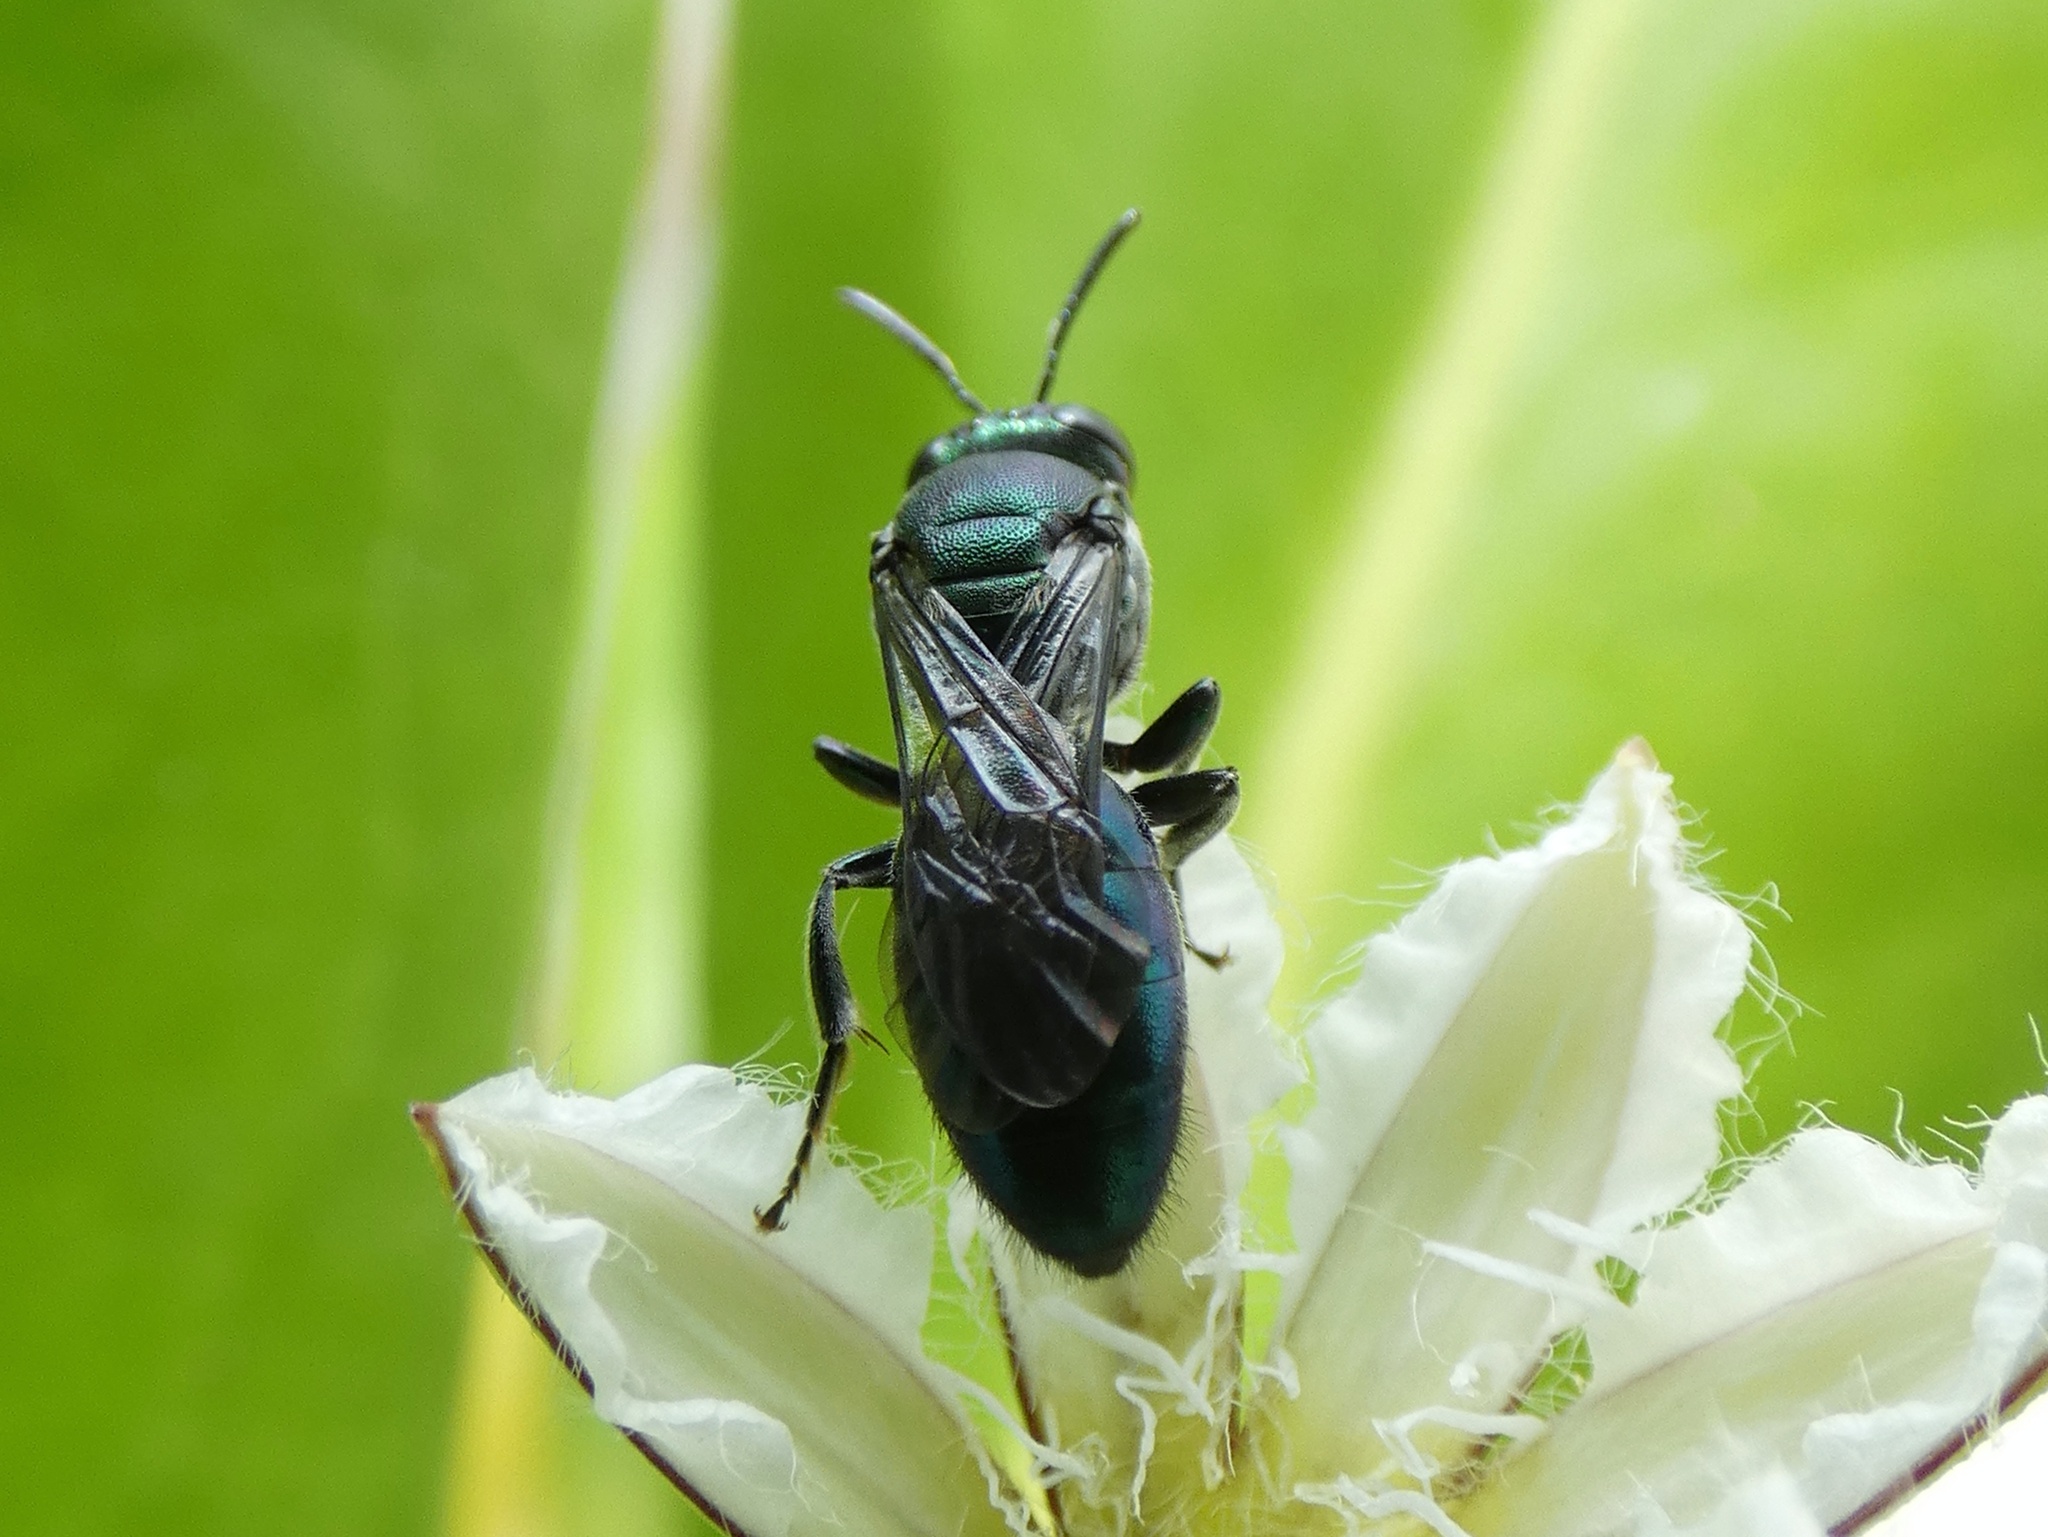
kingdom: Animalia
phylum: Arthropoda
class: Insecta
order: Hymenoptera
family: Colletidae
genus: Palaeorhiza
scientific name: Palaeorhiza turneriana
